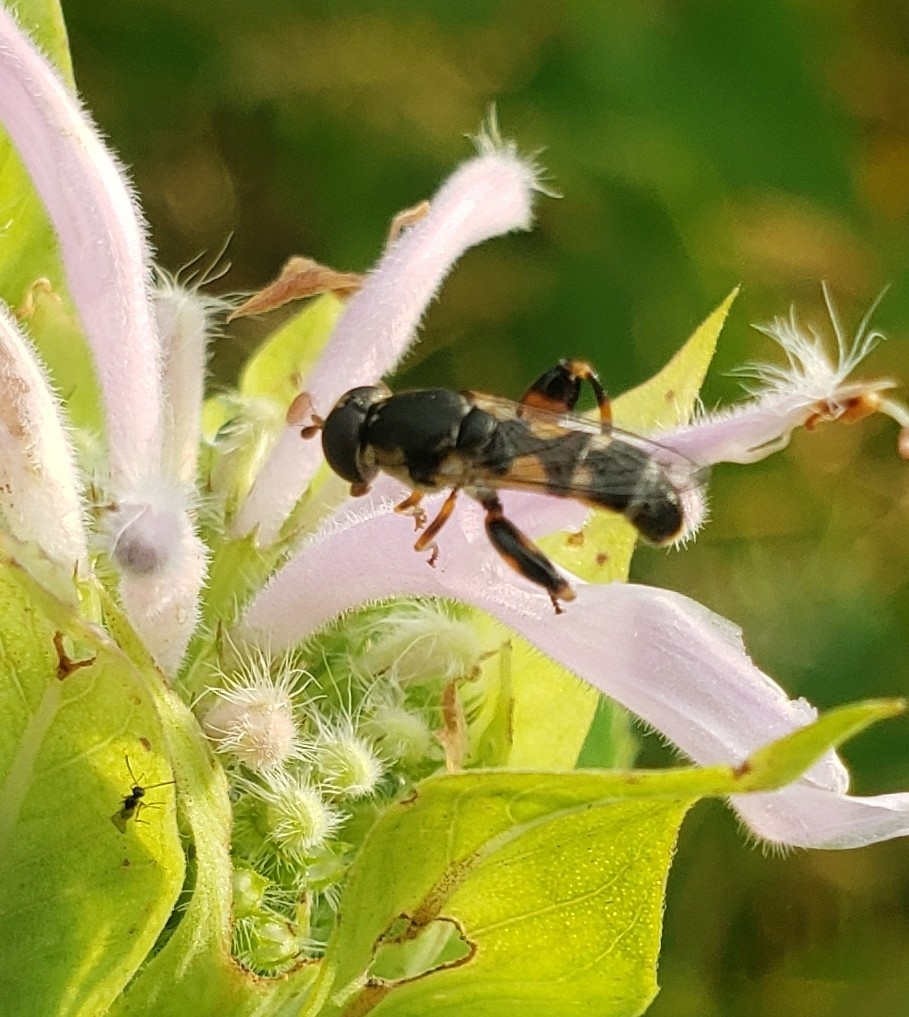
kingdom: Animalia
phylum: Arthropoda
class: Insecta
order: Diptera
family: Syrphidae
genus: Syritta
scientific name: Syritta pipiens
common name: Hover fly
